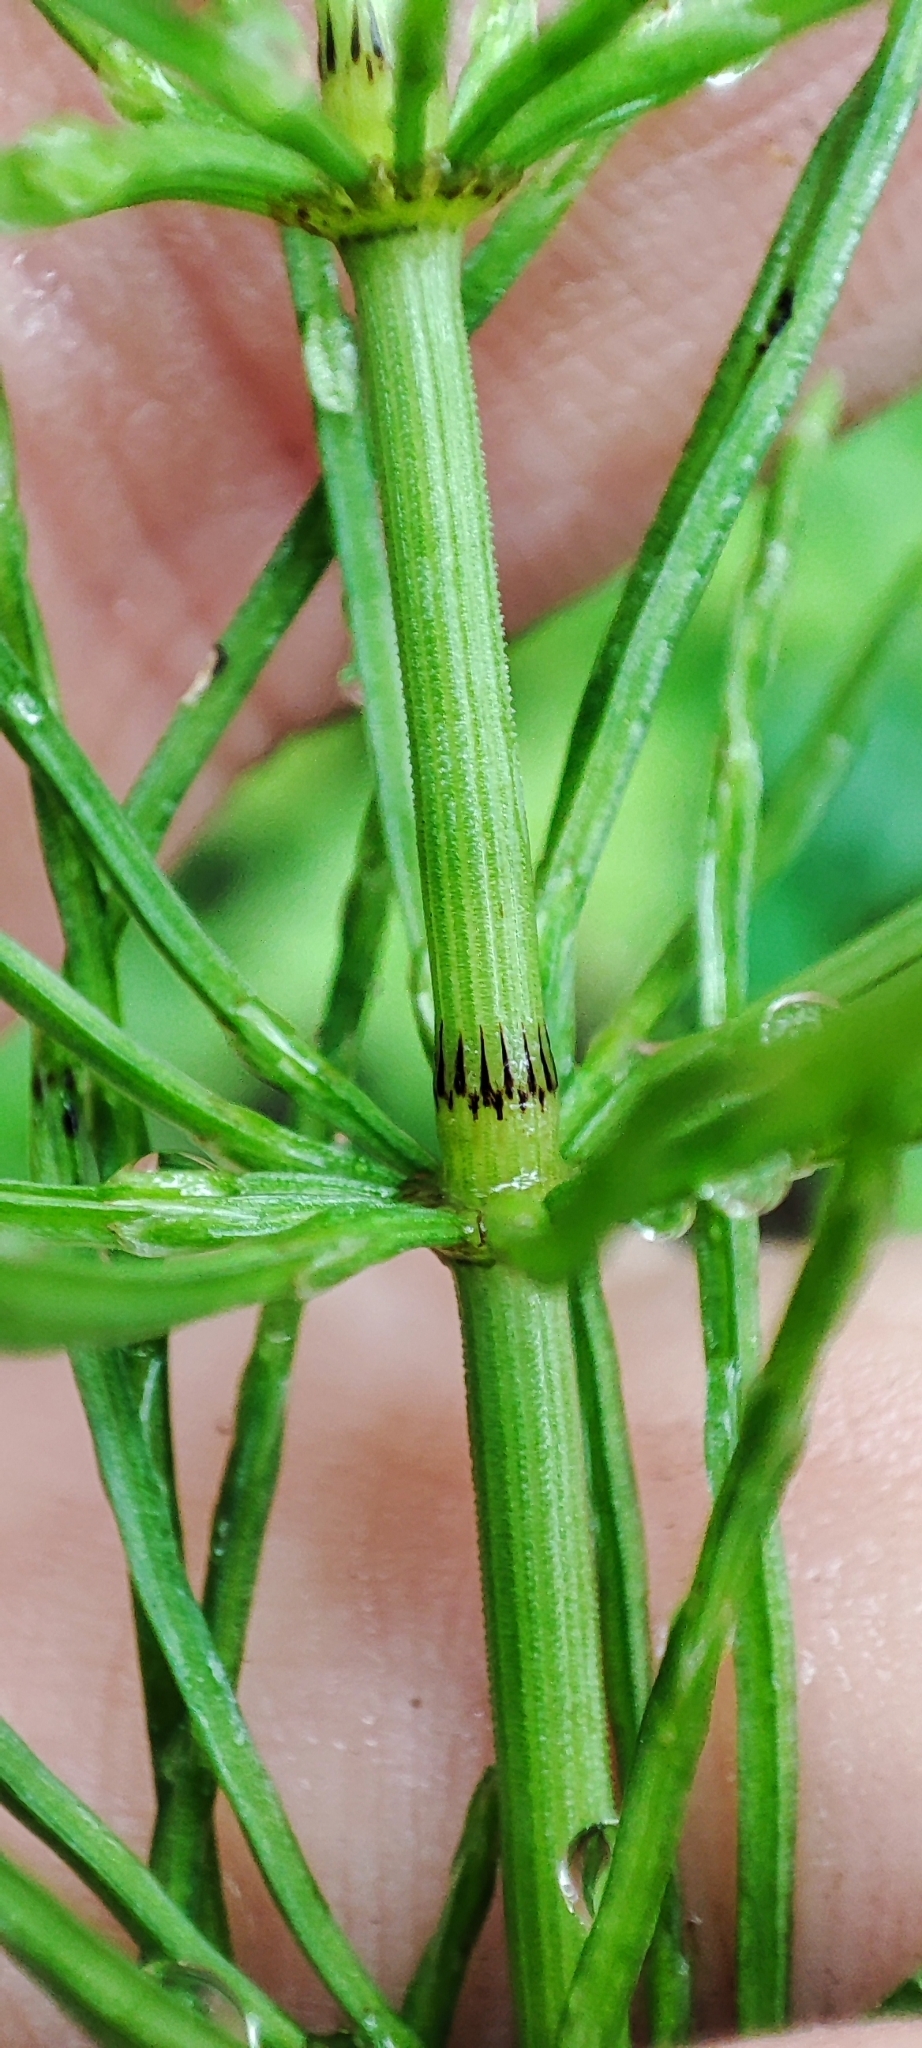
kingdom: Plantae
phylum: Tracheophyta
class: Polypodiopsida
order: Equisetales
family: Equisetaceae
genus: Equisetum
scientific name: Equisetum pratense
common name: Meadow horsetail
